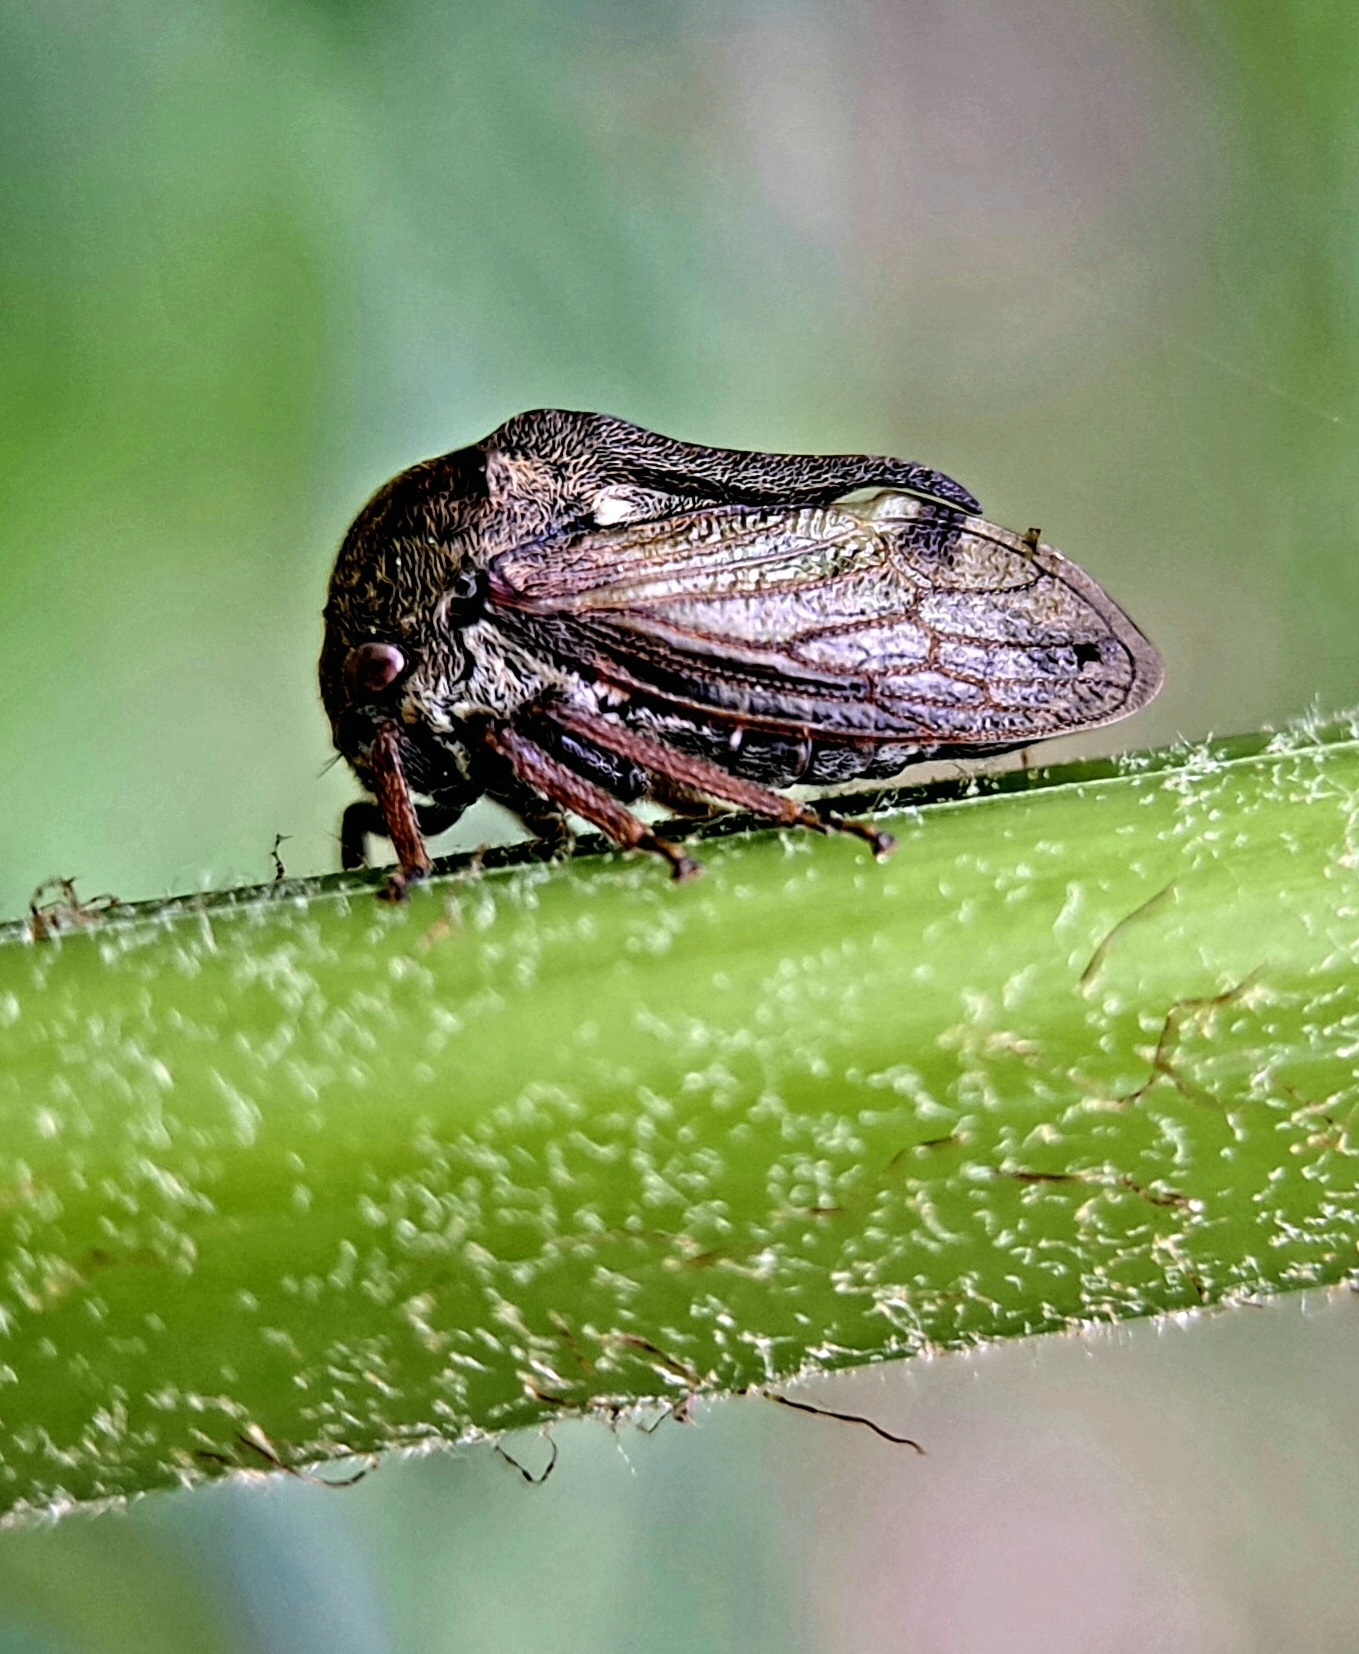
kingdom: Animalia
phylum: Arthropoda
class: Insecta
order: Hemiptera
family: Membracidae
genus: Centrotus
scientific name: Centrotus cornuta
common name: Treehopper
